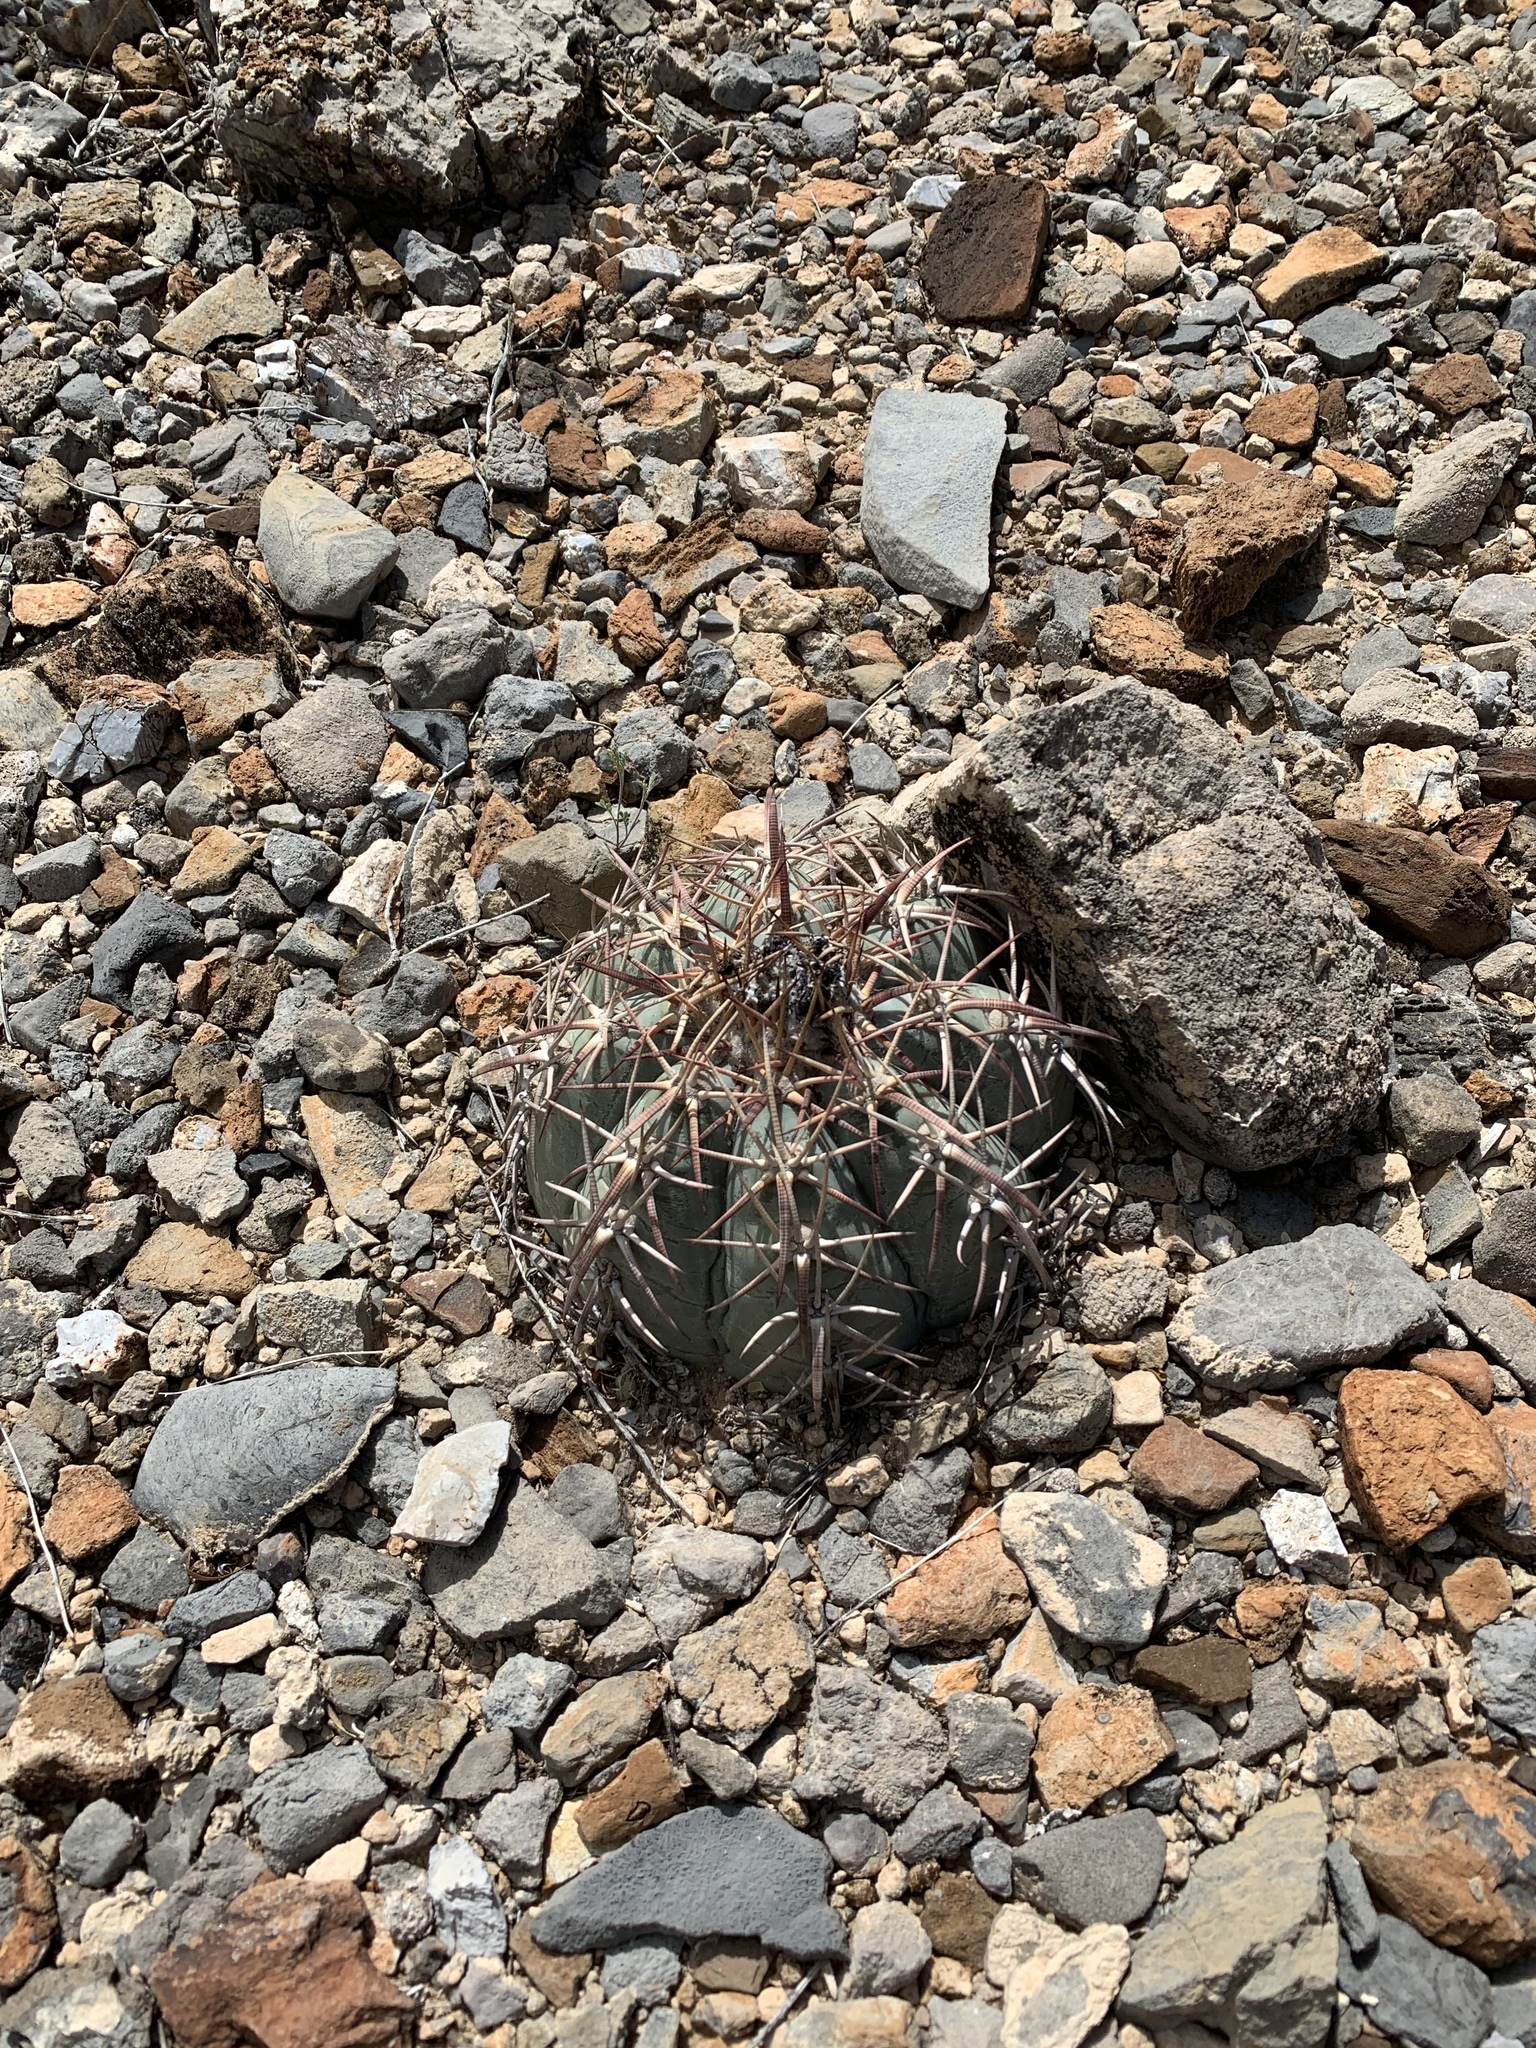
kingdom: Plantae
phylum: Tracheophyta
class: Magnoliopsida
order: Caryophyllales
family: Cactaceae
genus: Echinocactus
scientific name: Echinocactus horizonthalonius
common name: Devilshead
